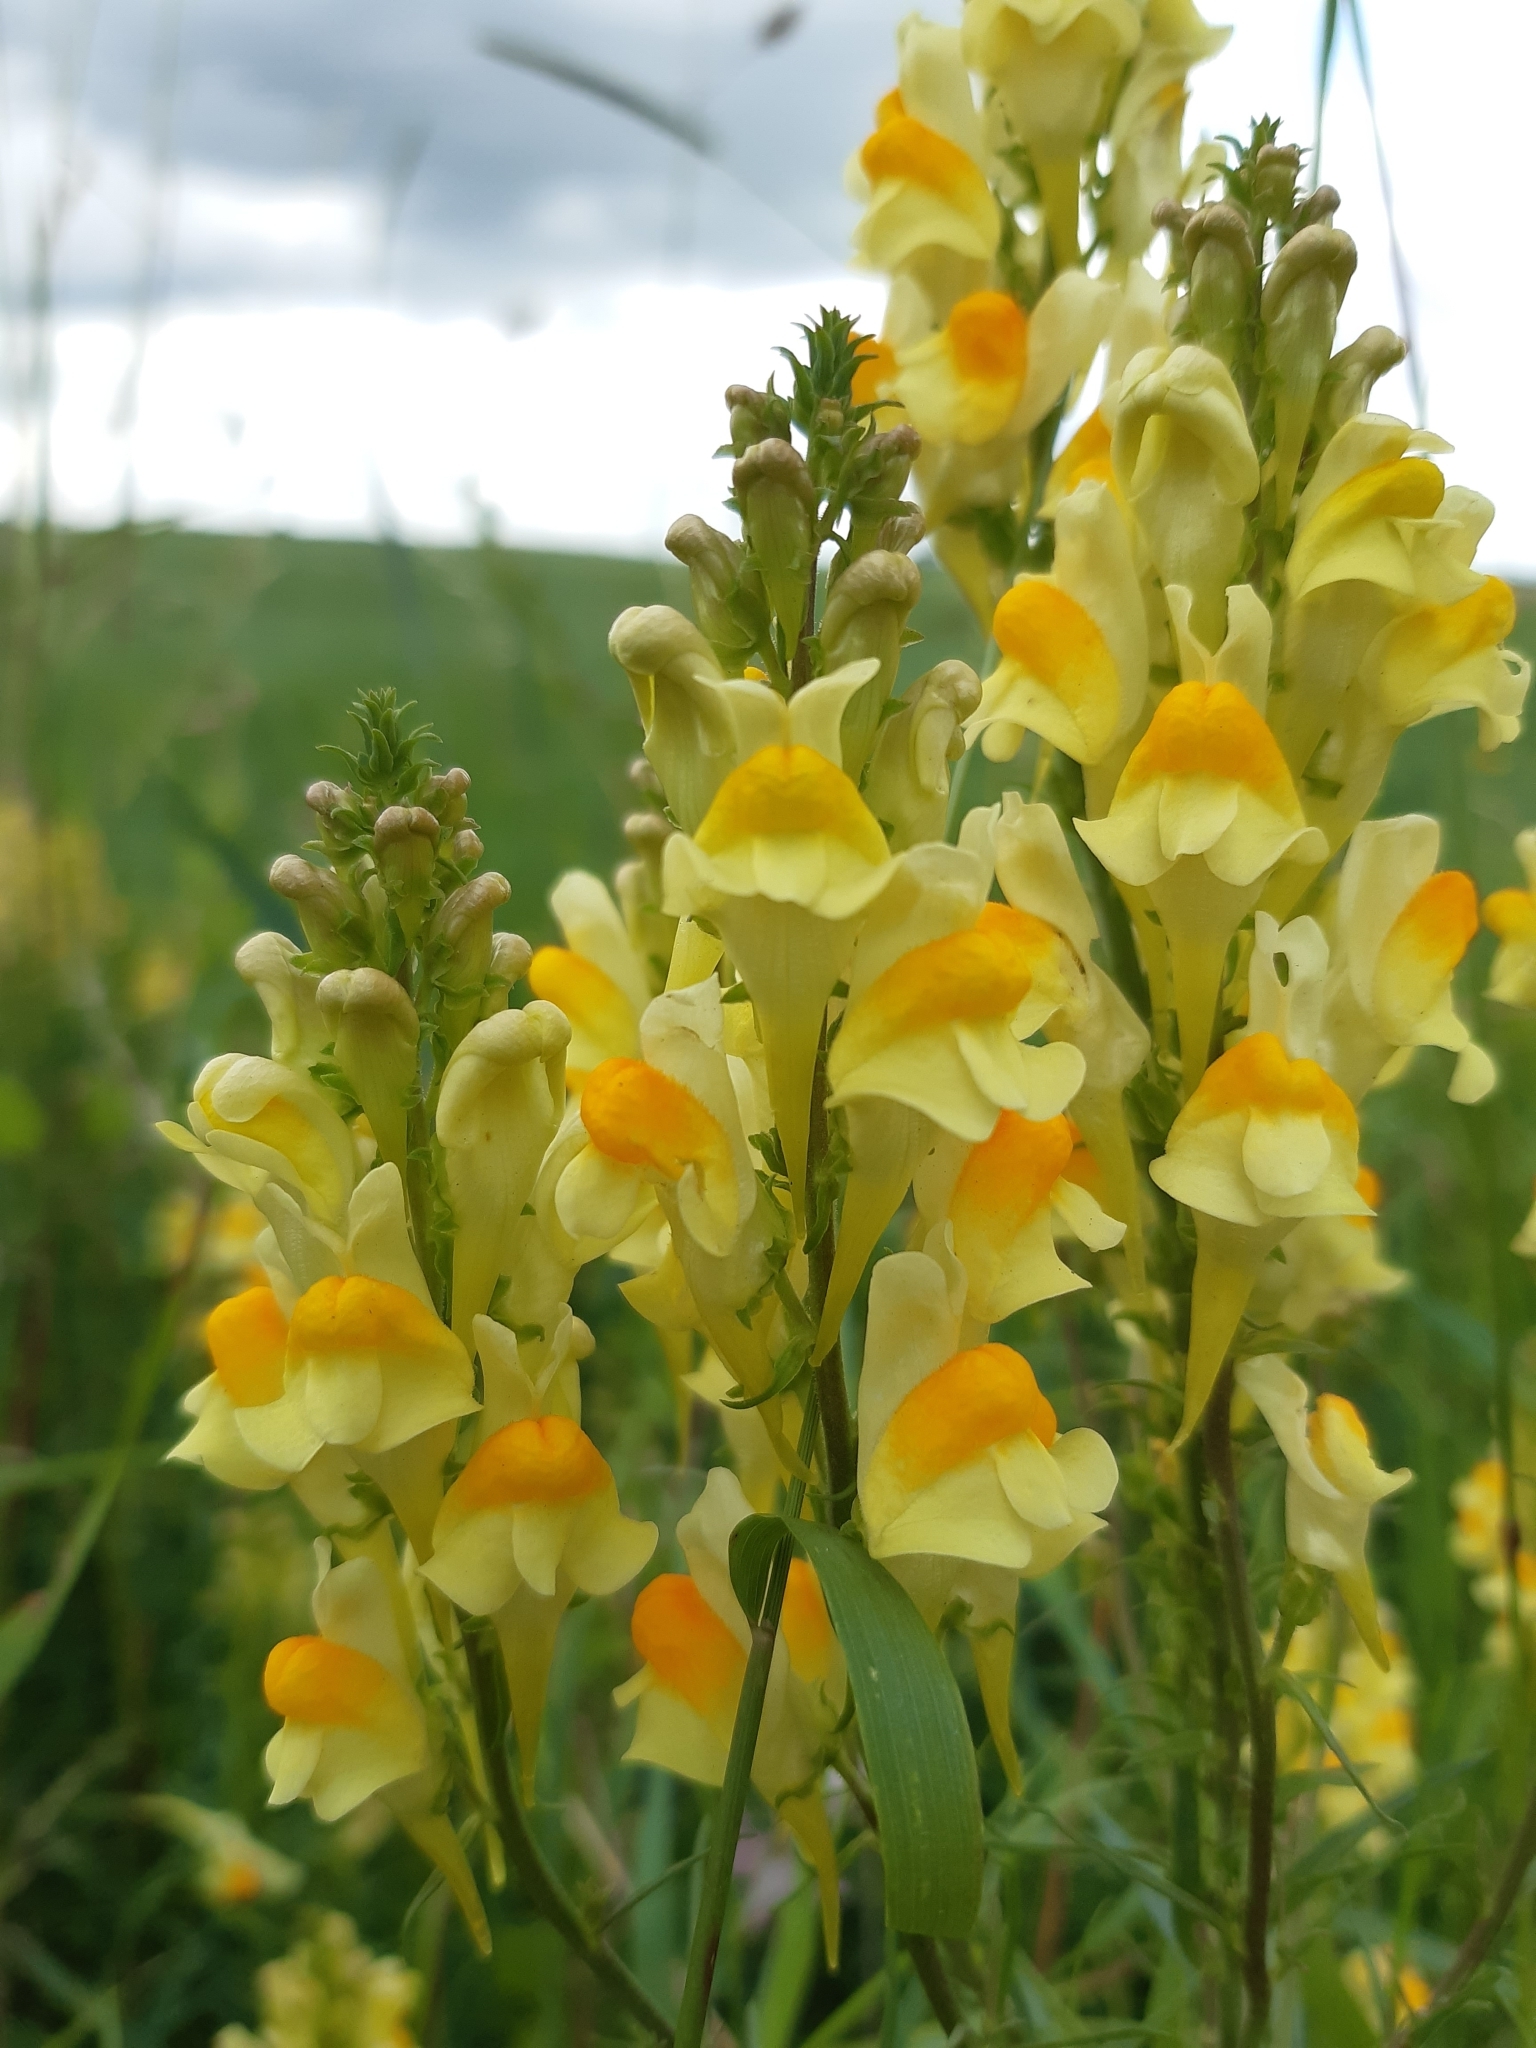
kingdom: Plantae
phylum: Tracheophyta
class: Magnoliopsida
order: Lamiales
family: Plantaginaceae
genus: Linaria
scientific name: Linaria vulgaris
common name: Butter and eggs
